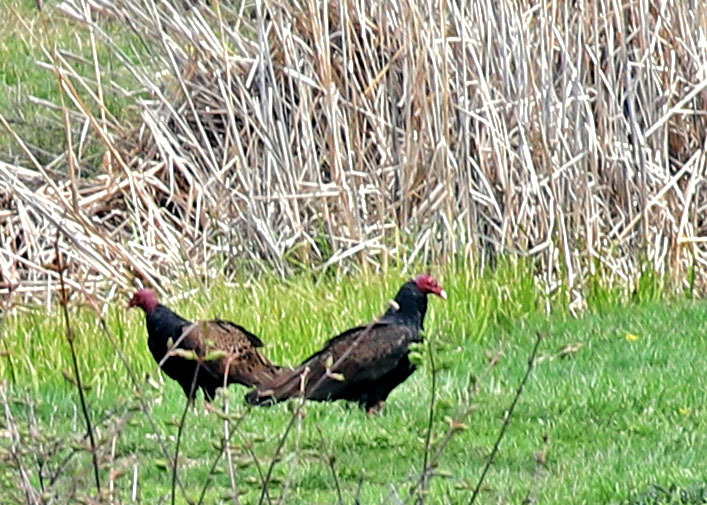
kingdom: Animalia
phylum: Chordata
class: Aves
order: Accipitriformes
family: Cathartidae
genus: Cathartes
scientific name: Cathartes aura
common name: Turkey vulture
